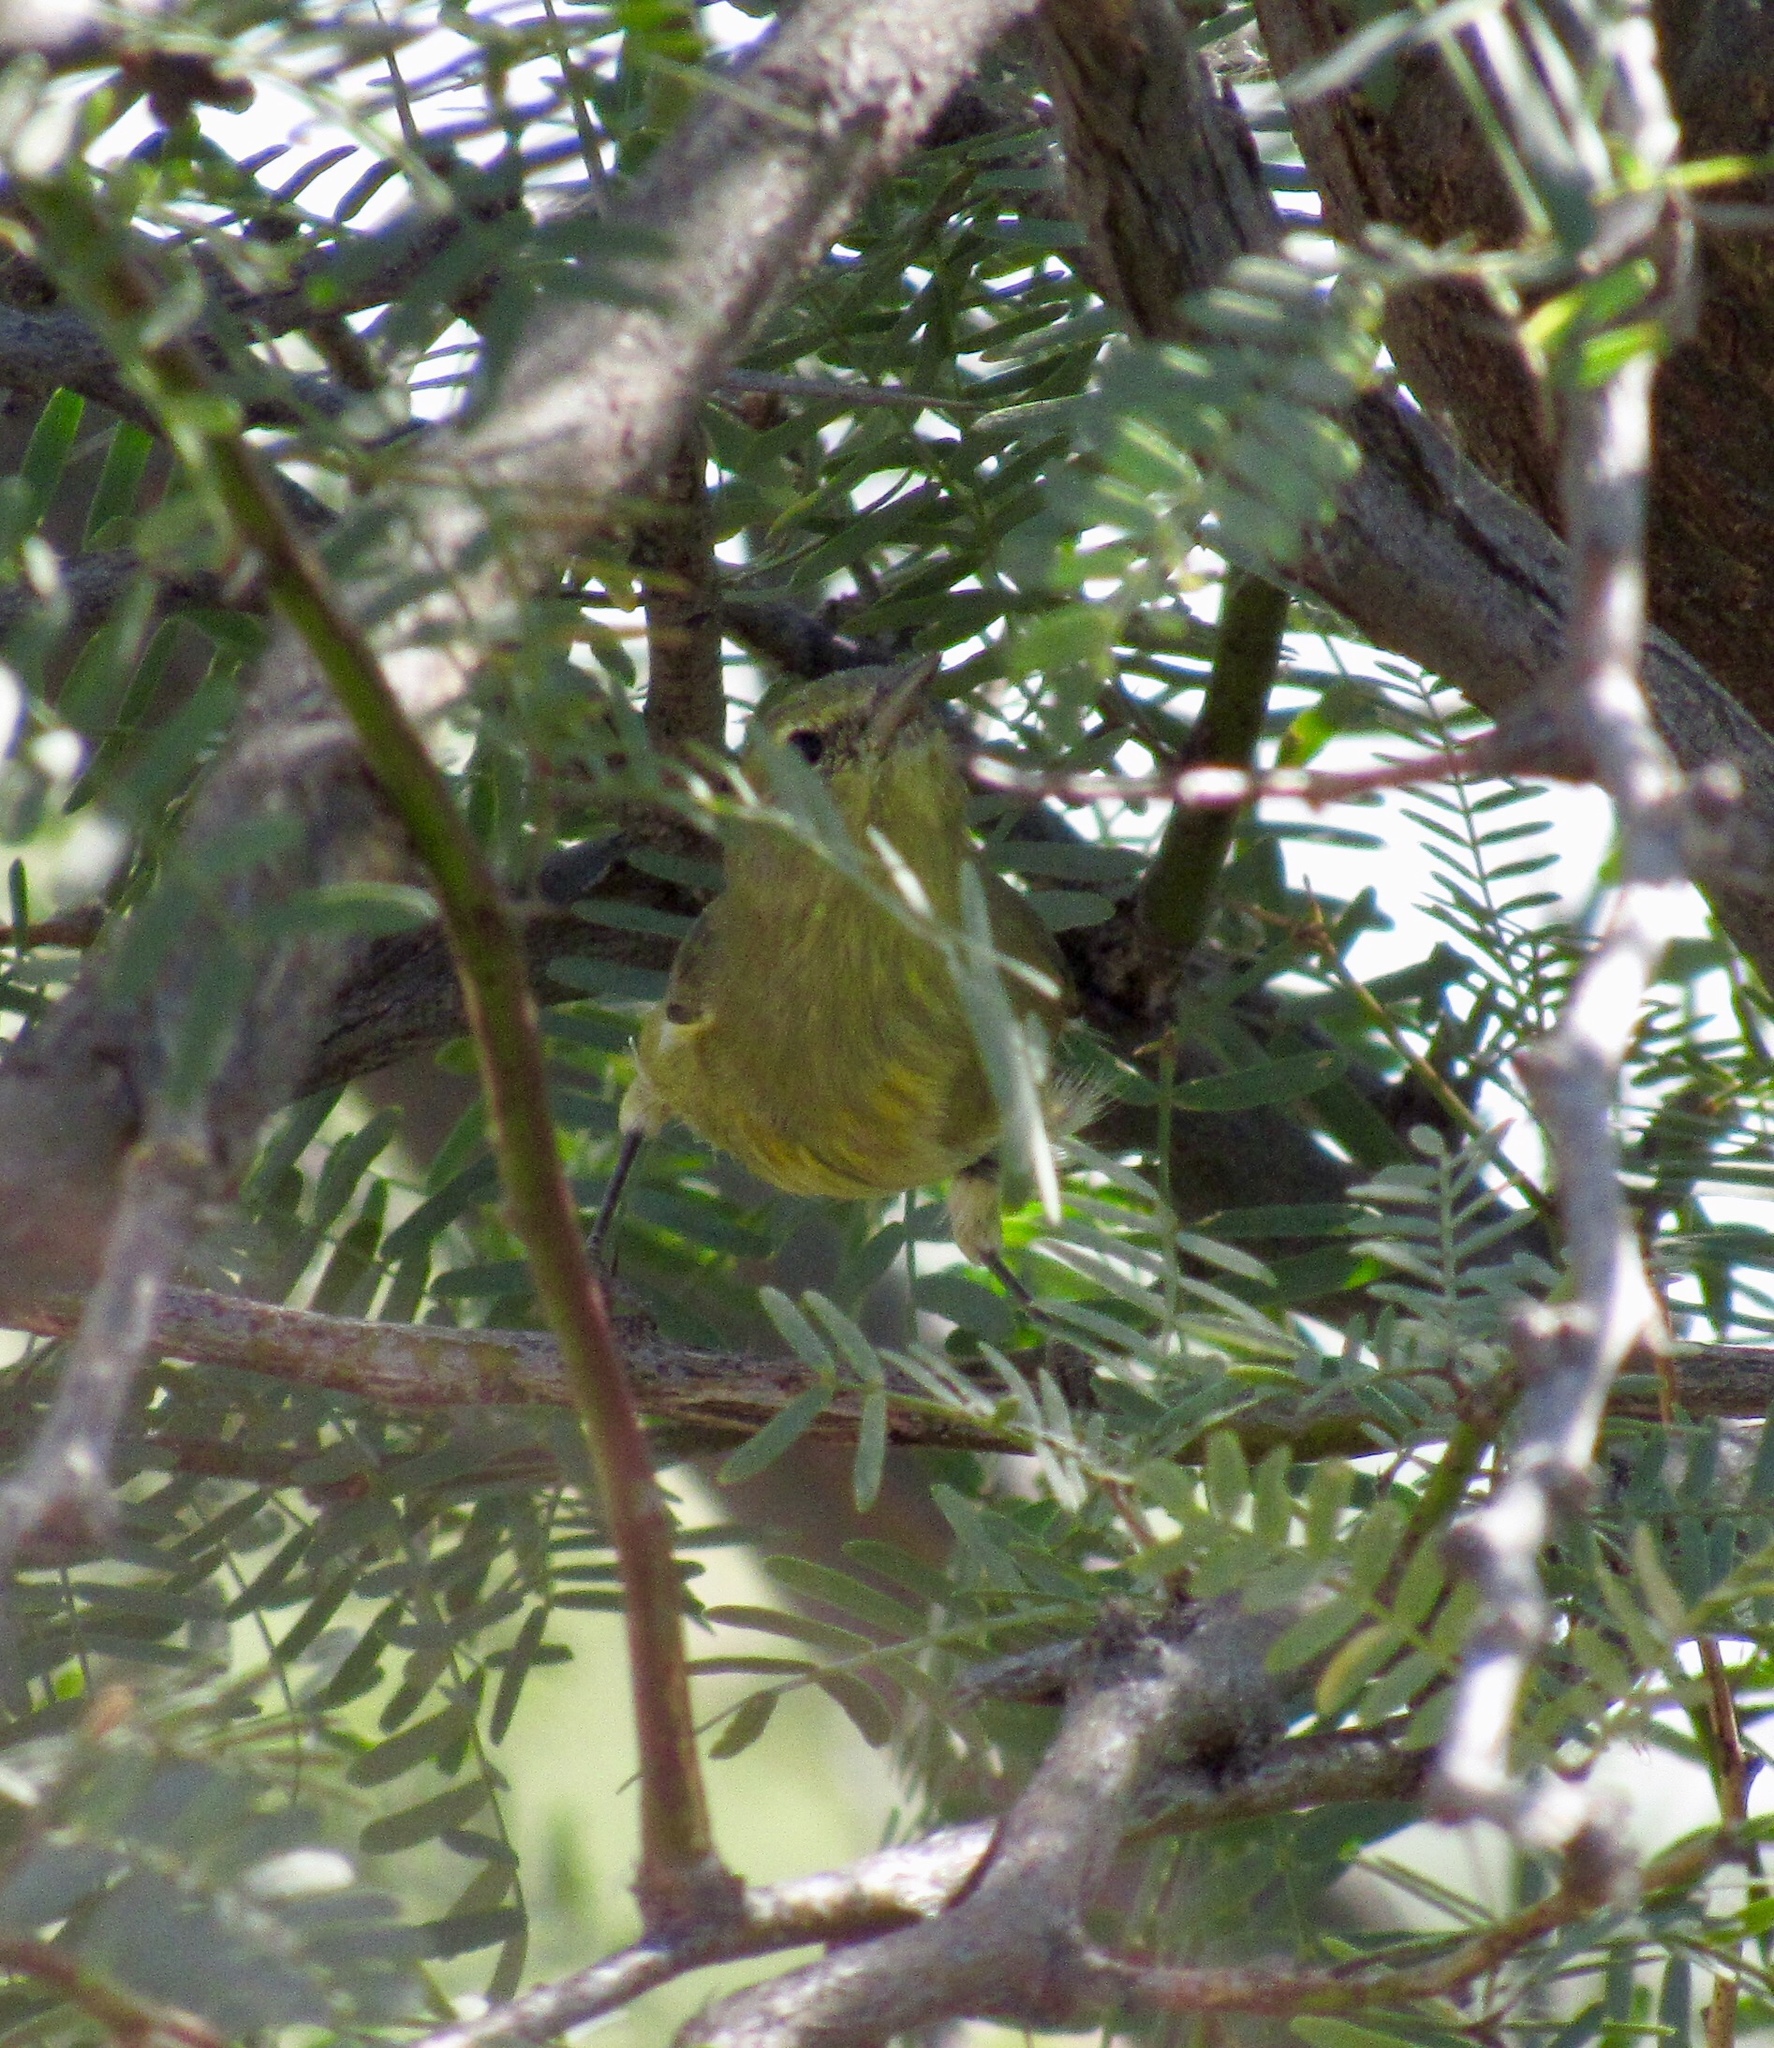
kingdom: Animalia
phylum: Chordata
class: Aves
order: Passeriformes
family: Parulidae
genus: Leiothlypis
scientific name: Leiothlypis celata
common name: Orange-crowned warbler
